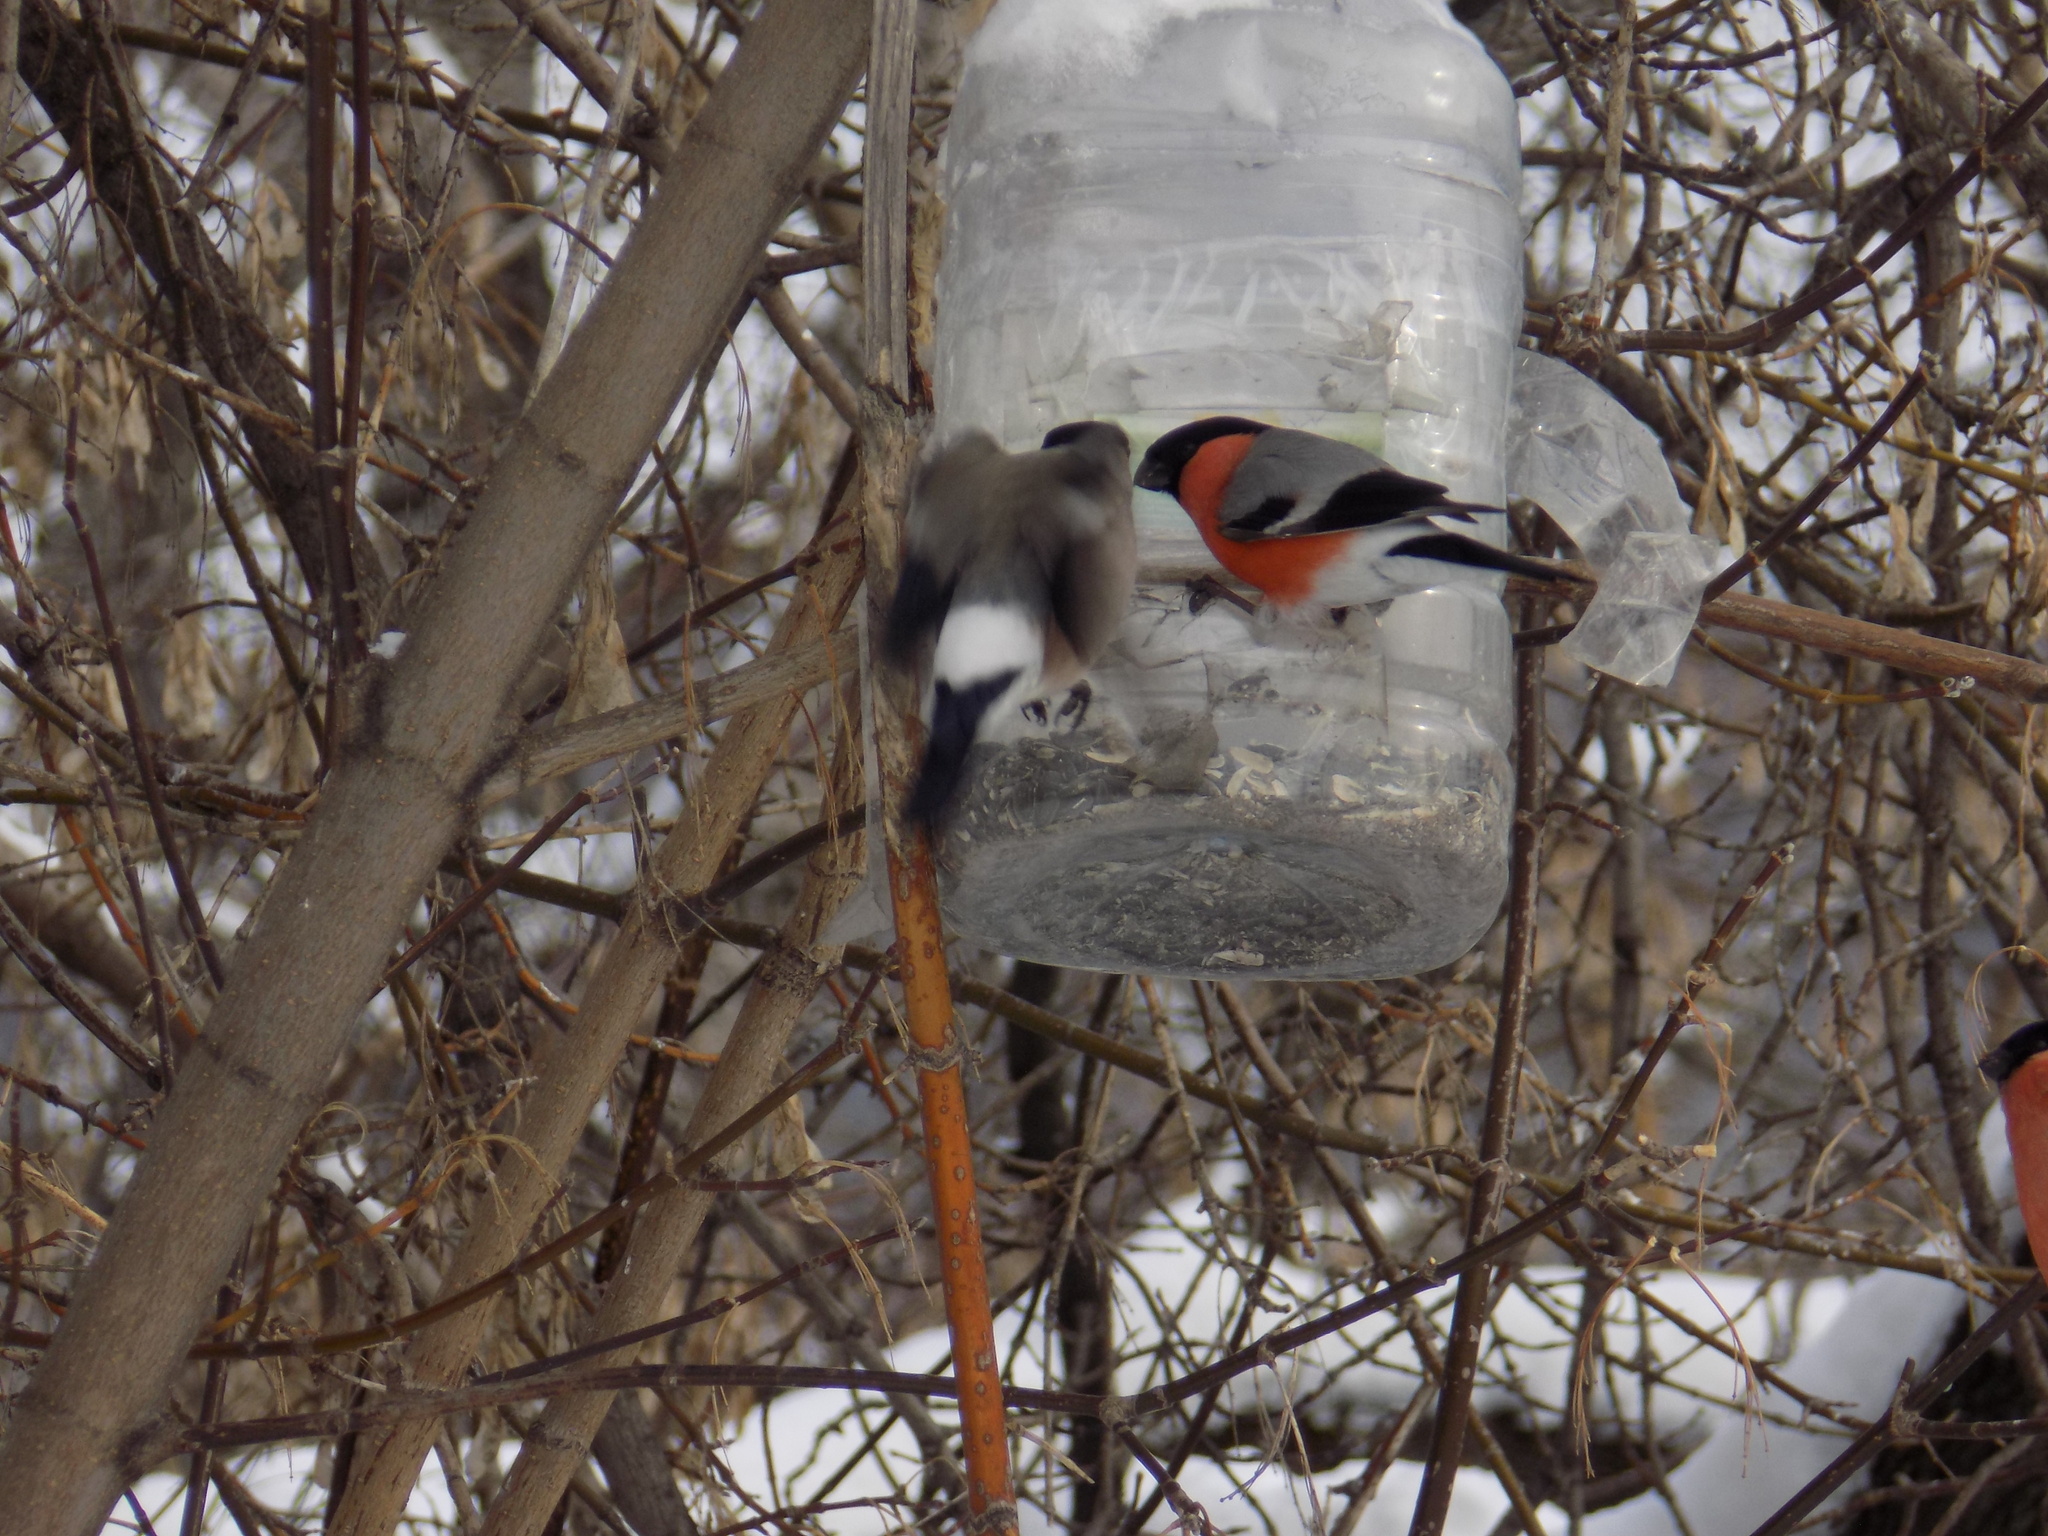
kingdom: Animalia
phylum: Chordata
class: Aves
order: Passeriformes
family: Fringillidae
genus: Pyrrhula
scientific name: Pyrrhula pyrrhula
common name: Eurasian bullfinch
